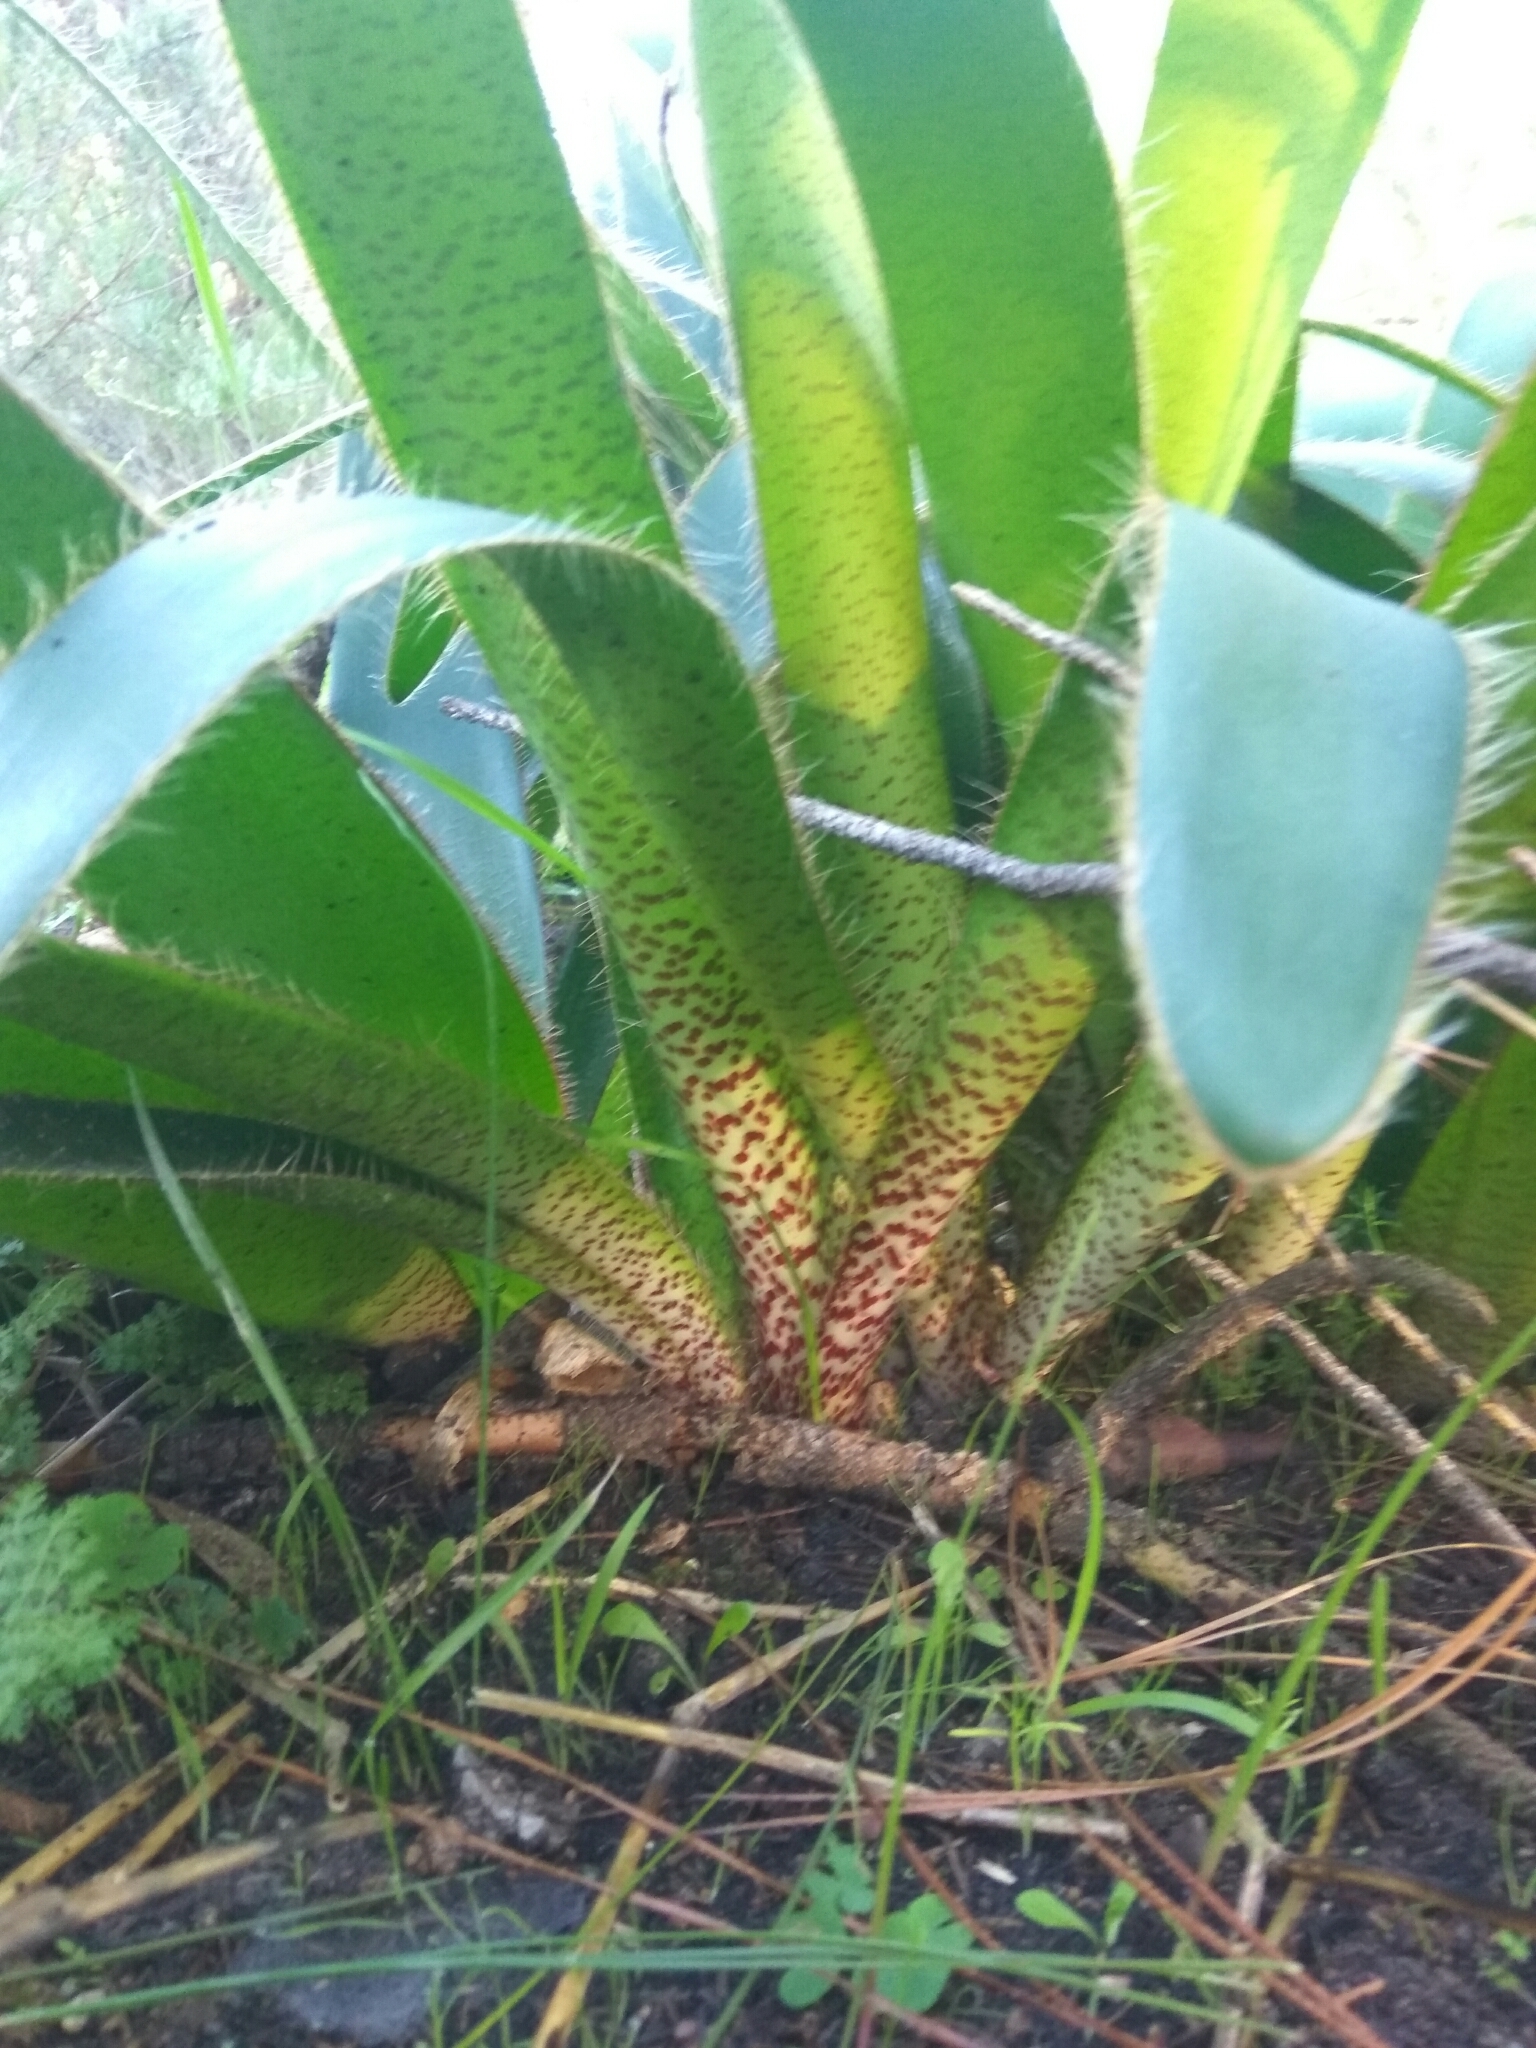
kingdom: Plantae
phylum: Tracheophyta
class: Liliopsida
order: Asparagales
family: Amaryllidaceae
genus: Crossyne
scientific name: Crossyne guttata
